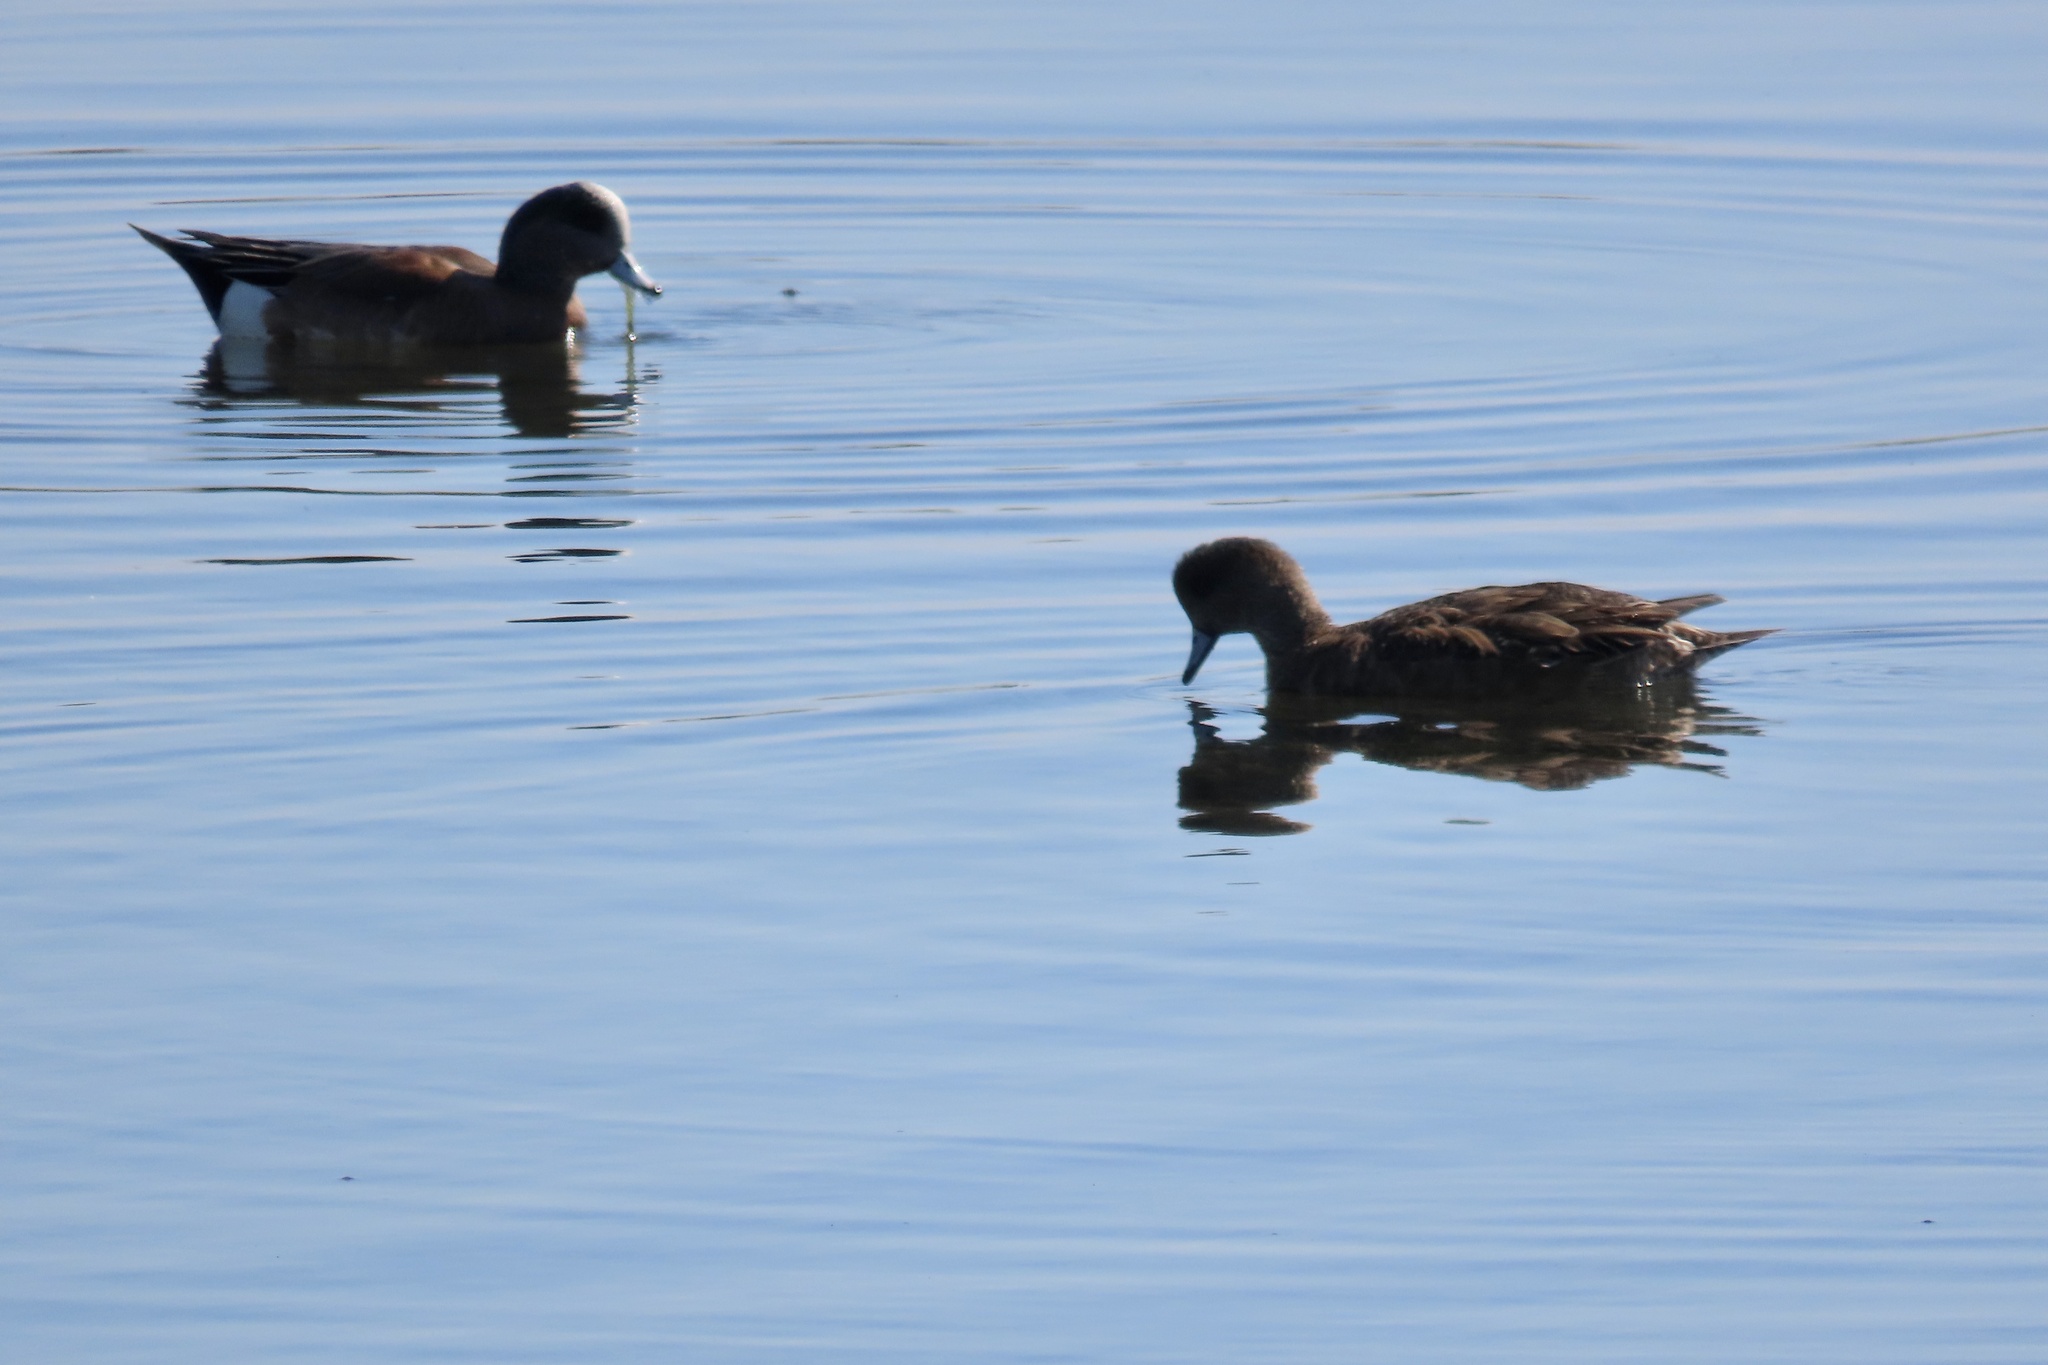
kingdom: Animalia
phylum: Chordata
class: Aves
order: Anseriformes
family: Anatidae
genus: Mareca
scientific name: Mareca americana
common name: American wigeon
